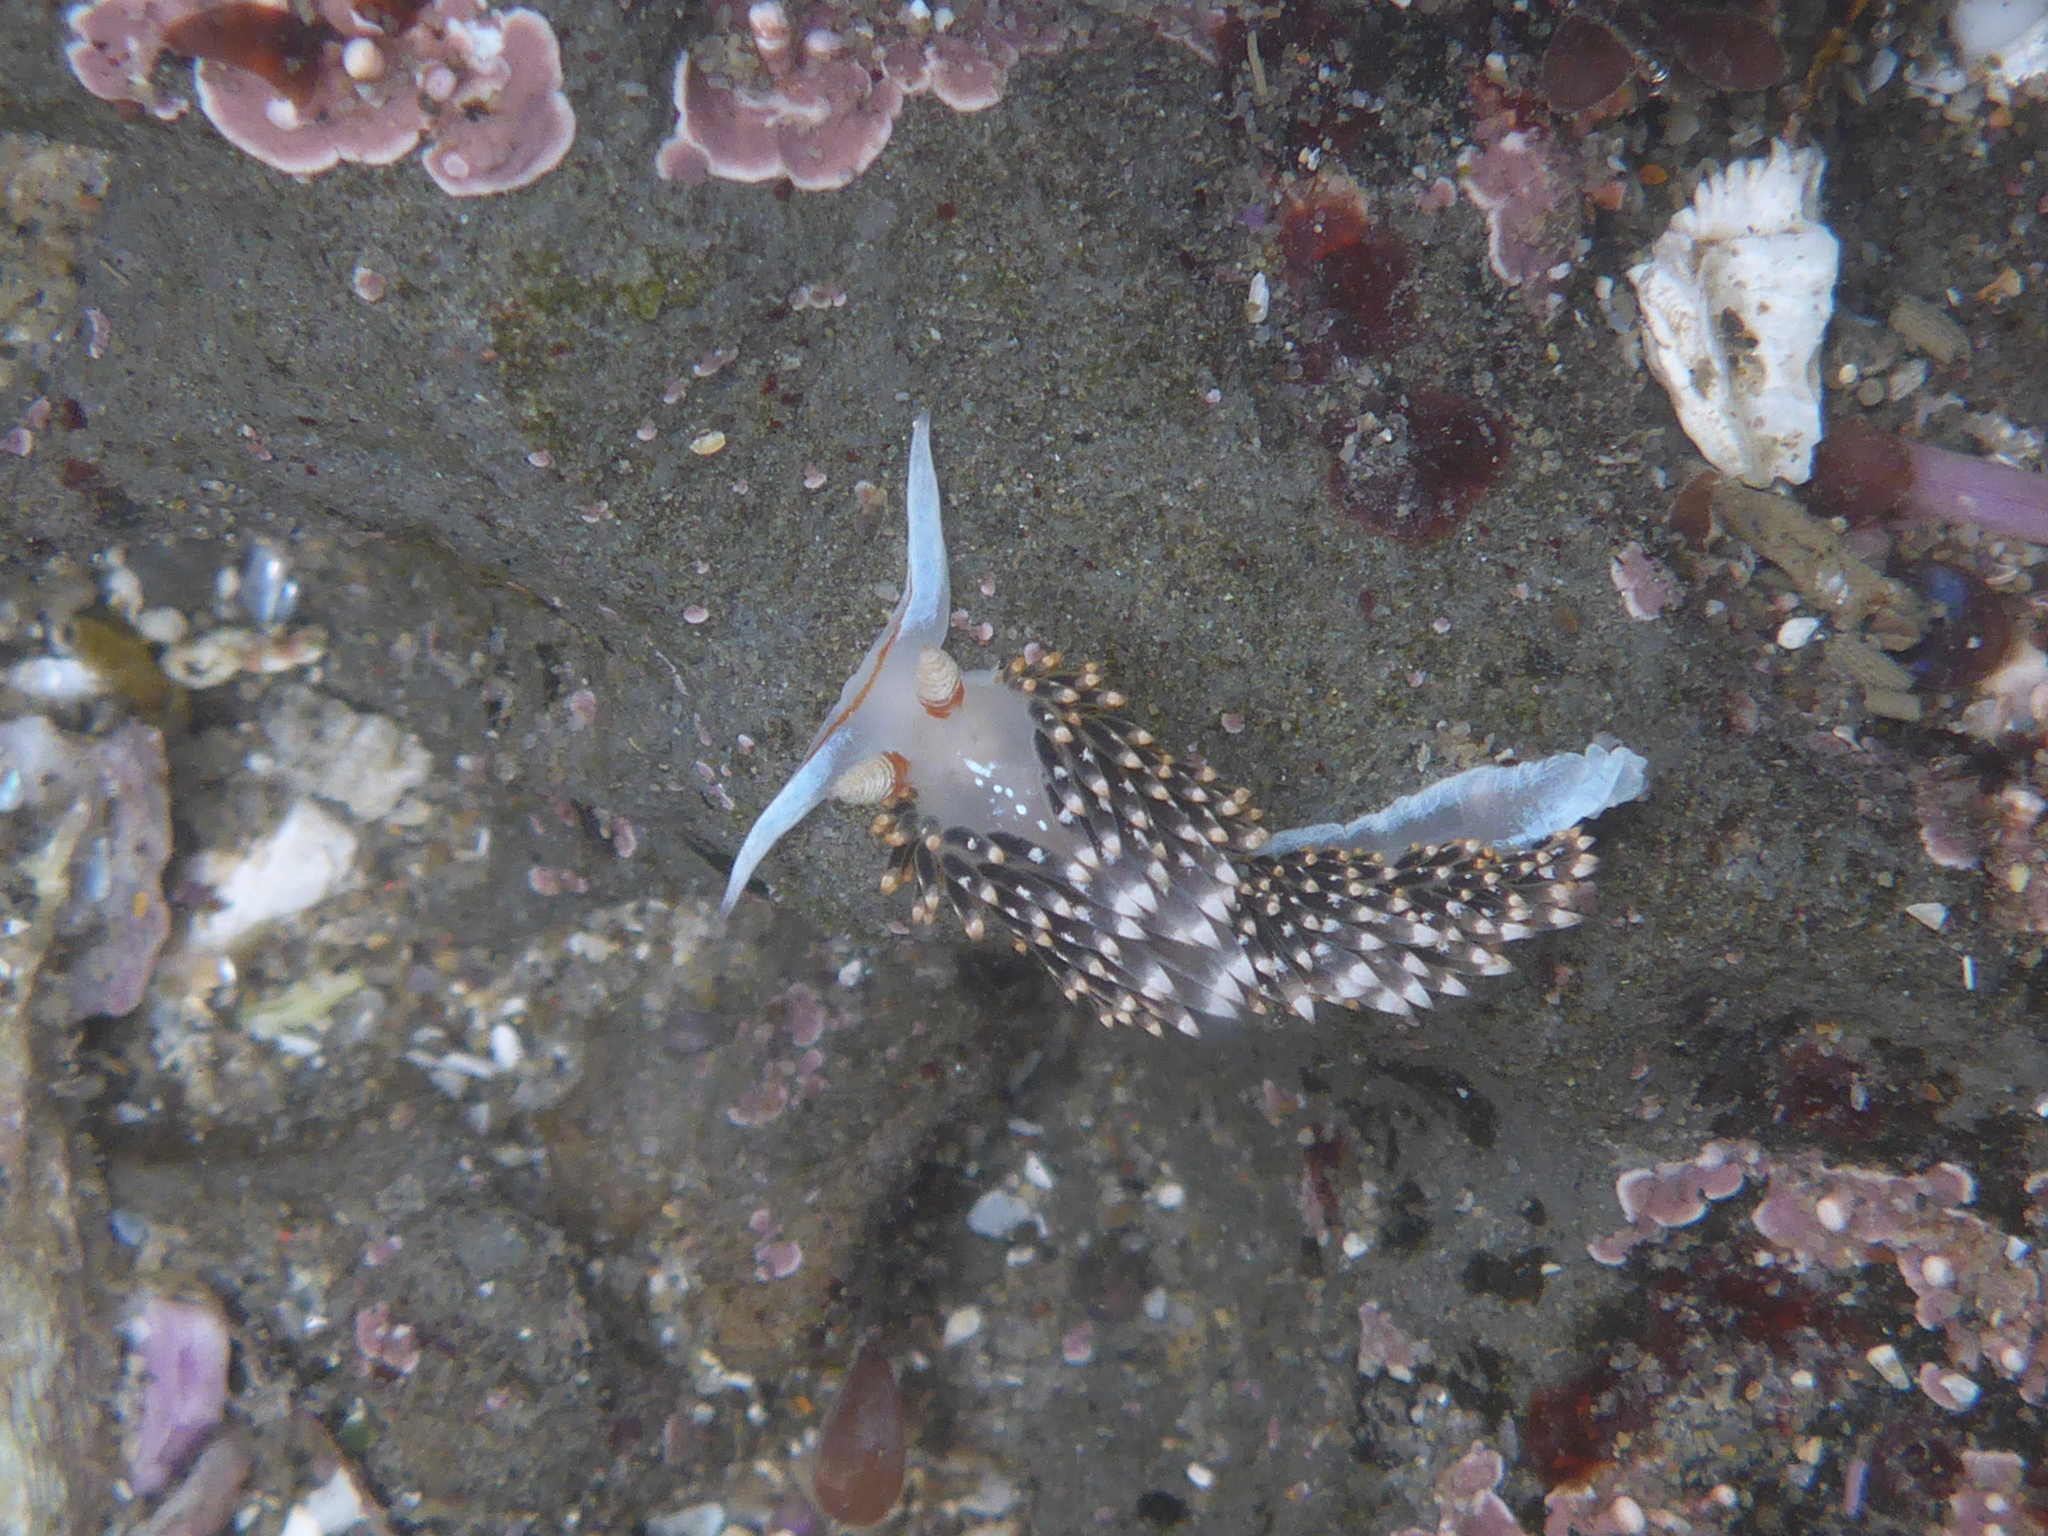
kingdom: Animalia
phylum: Mollusca
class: Gastropoda
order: Nudibranchia
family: Facelinidae
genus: Phidiana
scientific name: Phidiana hiltoni
